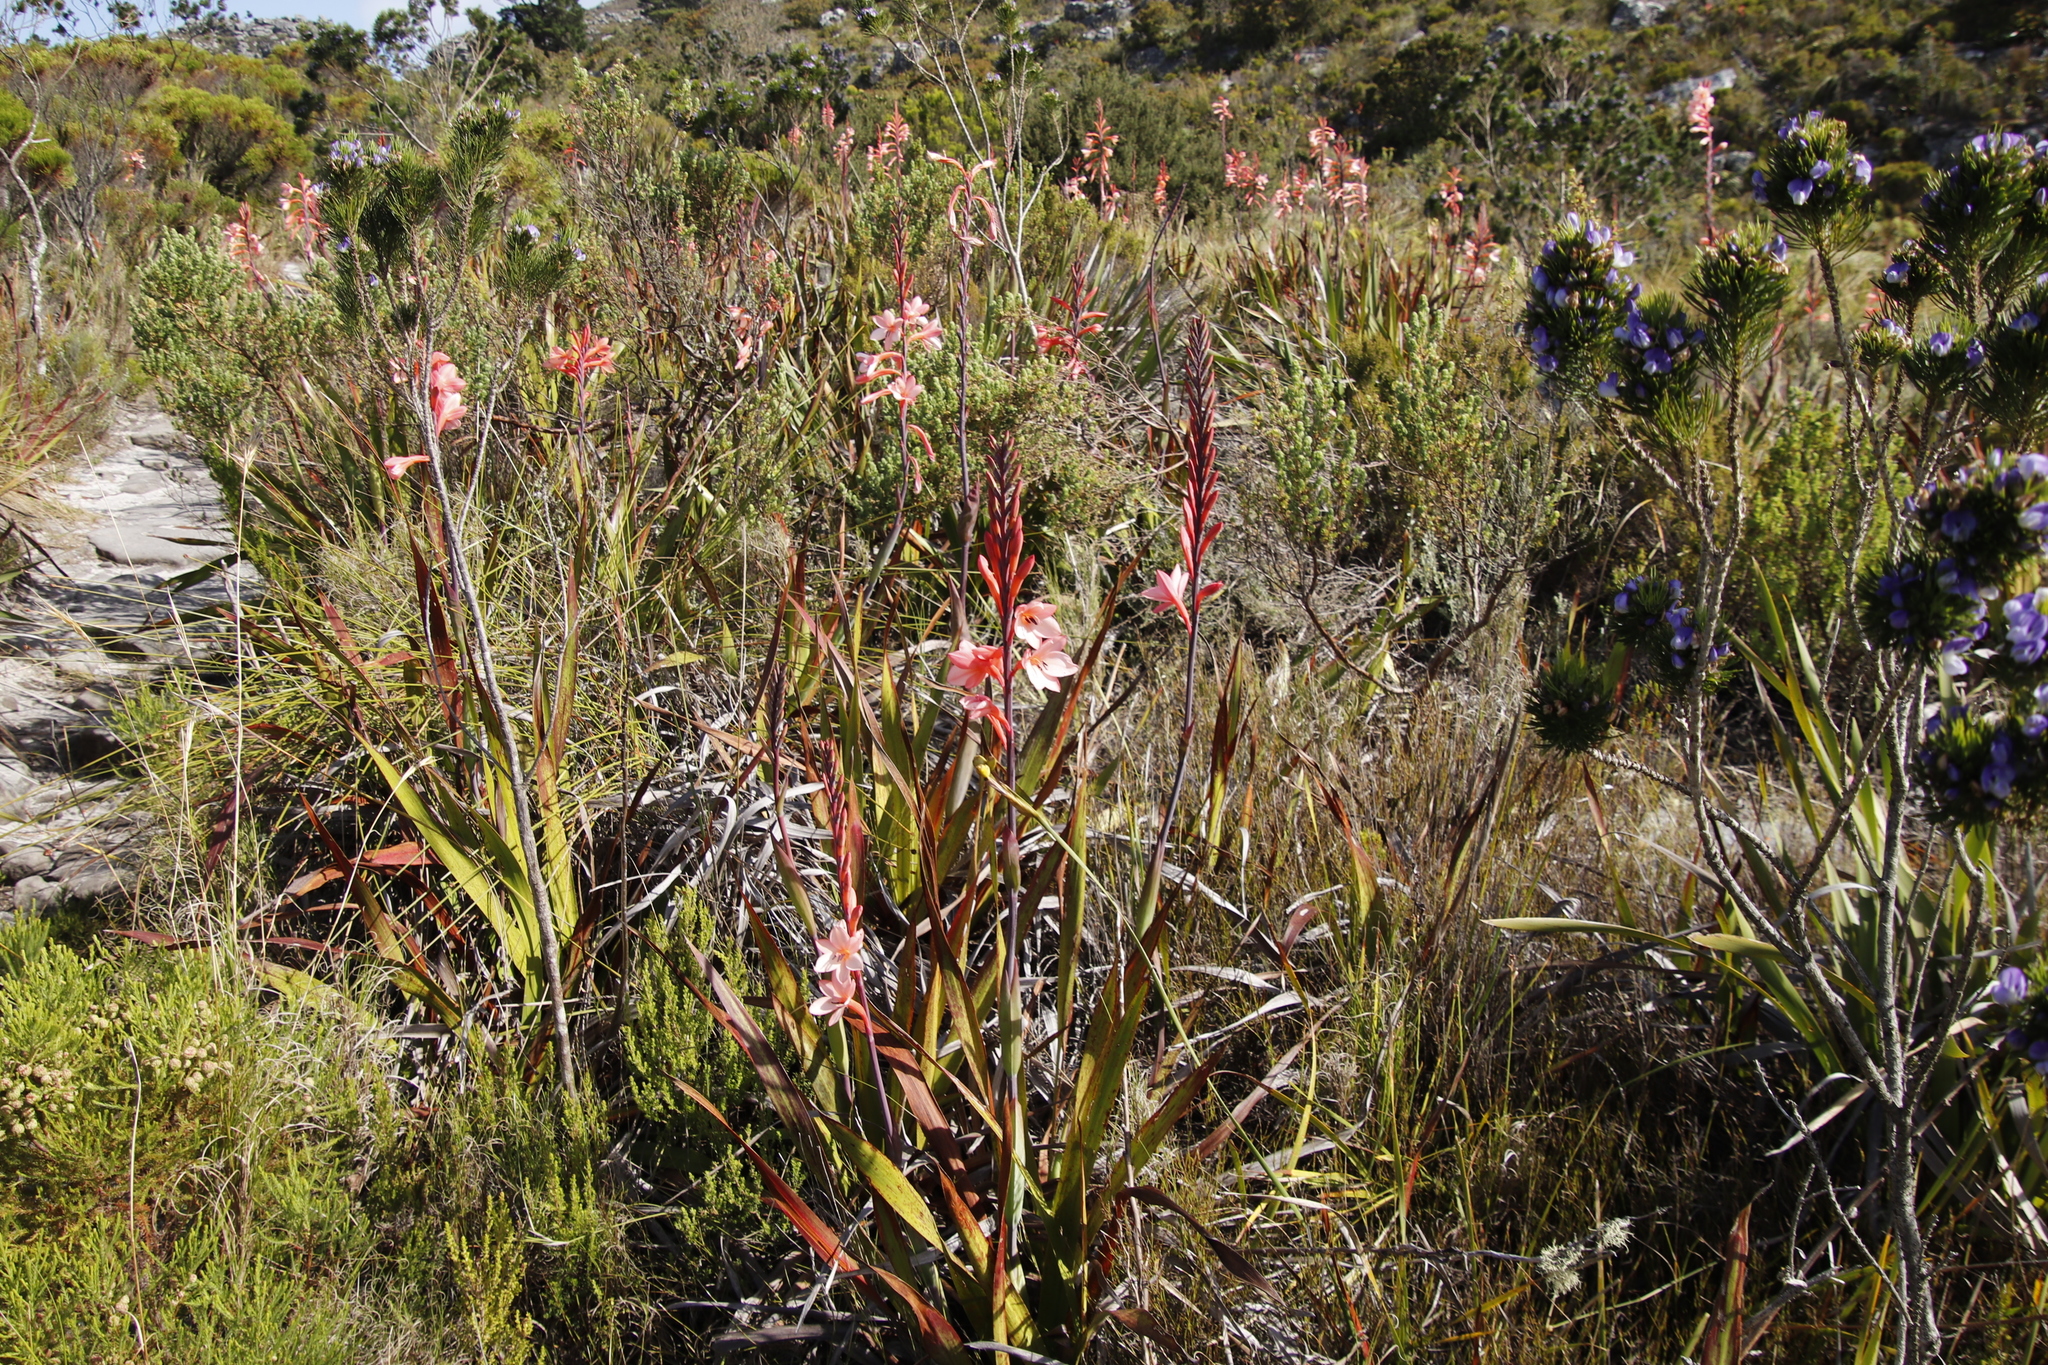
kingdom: Plantae
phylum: Tracheophyta
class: Liliopsida
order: Asparagales
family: Iridaceae
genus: Watsonia
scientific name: Watsonia tabularis
